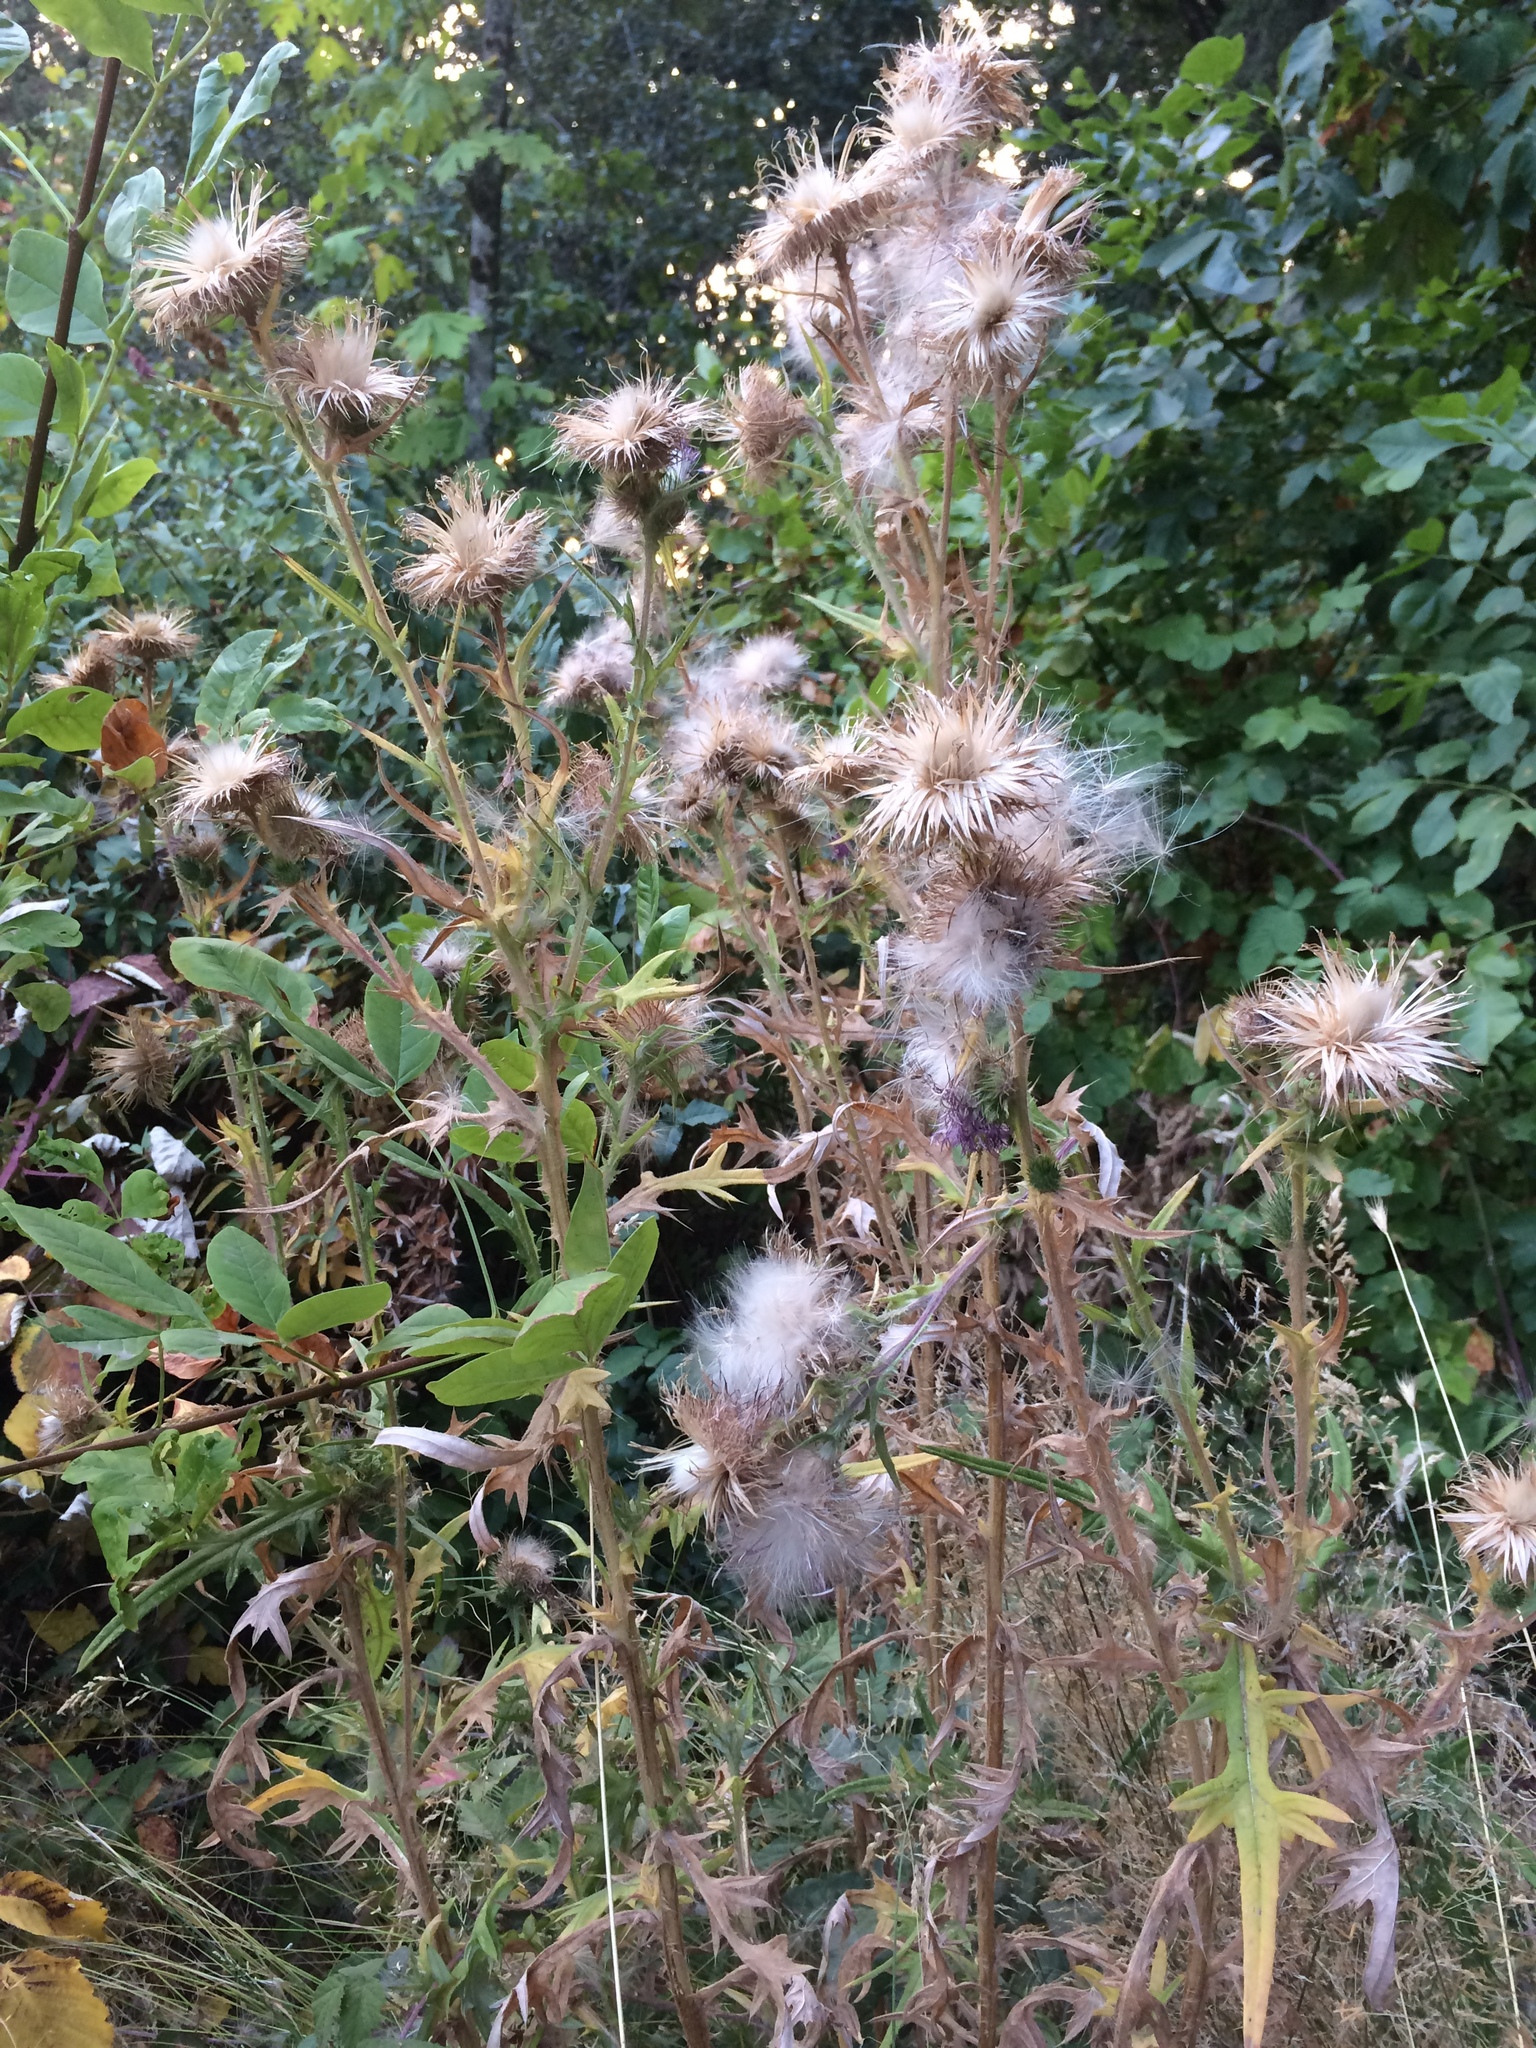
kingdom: Plantae
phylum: Tracheophyta
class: Magnoliopsida
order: Asterales
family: Asteraceae
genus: Cirsium
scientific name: Cirsium vulgare
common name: Bull thistle
